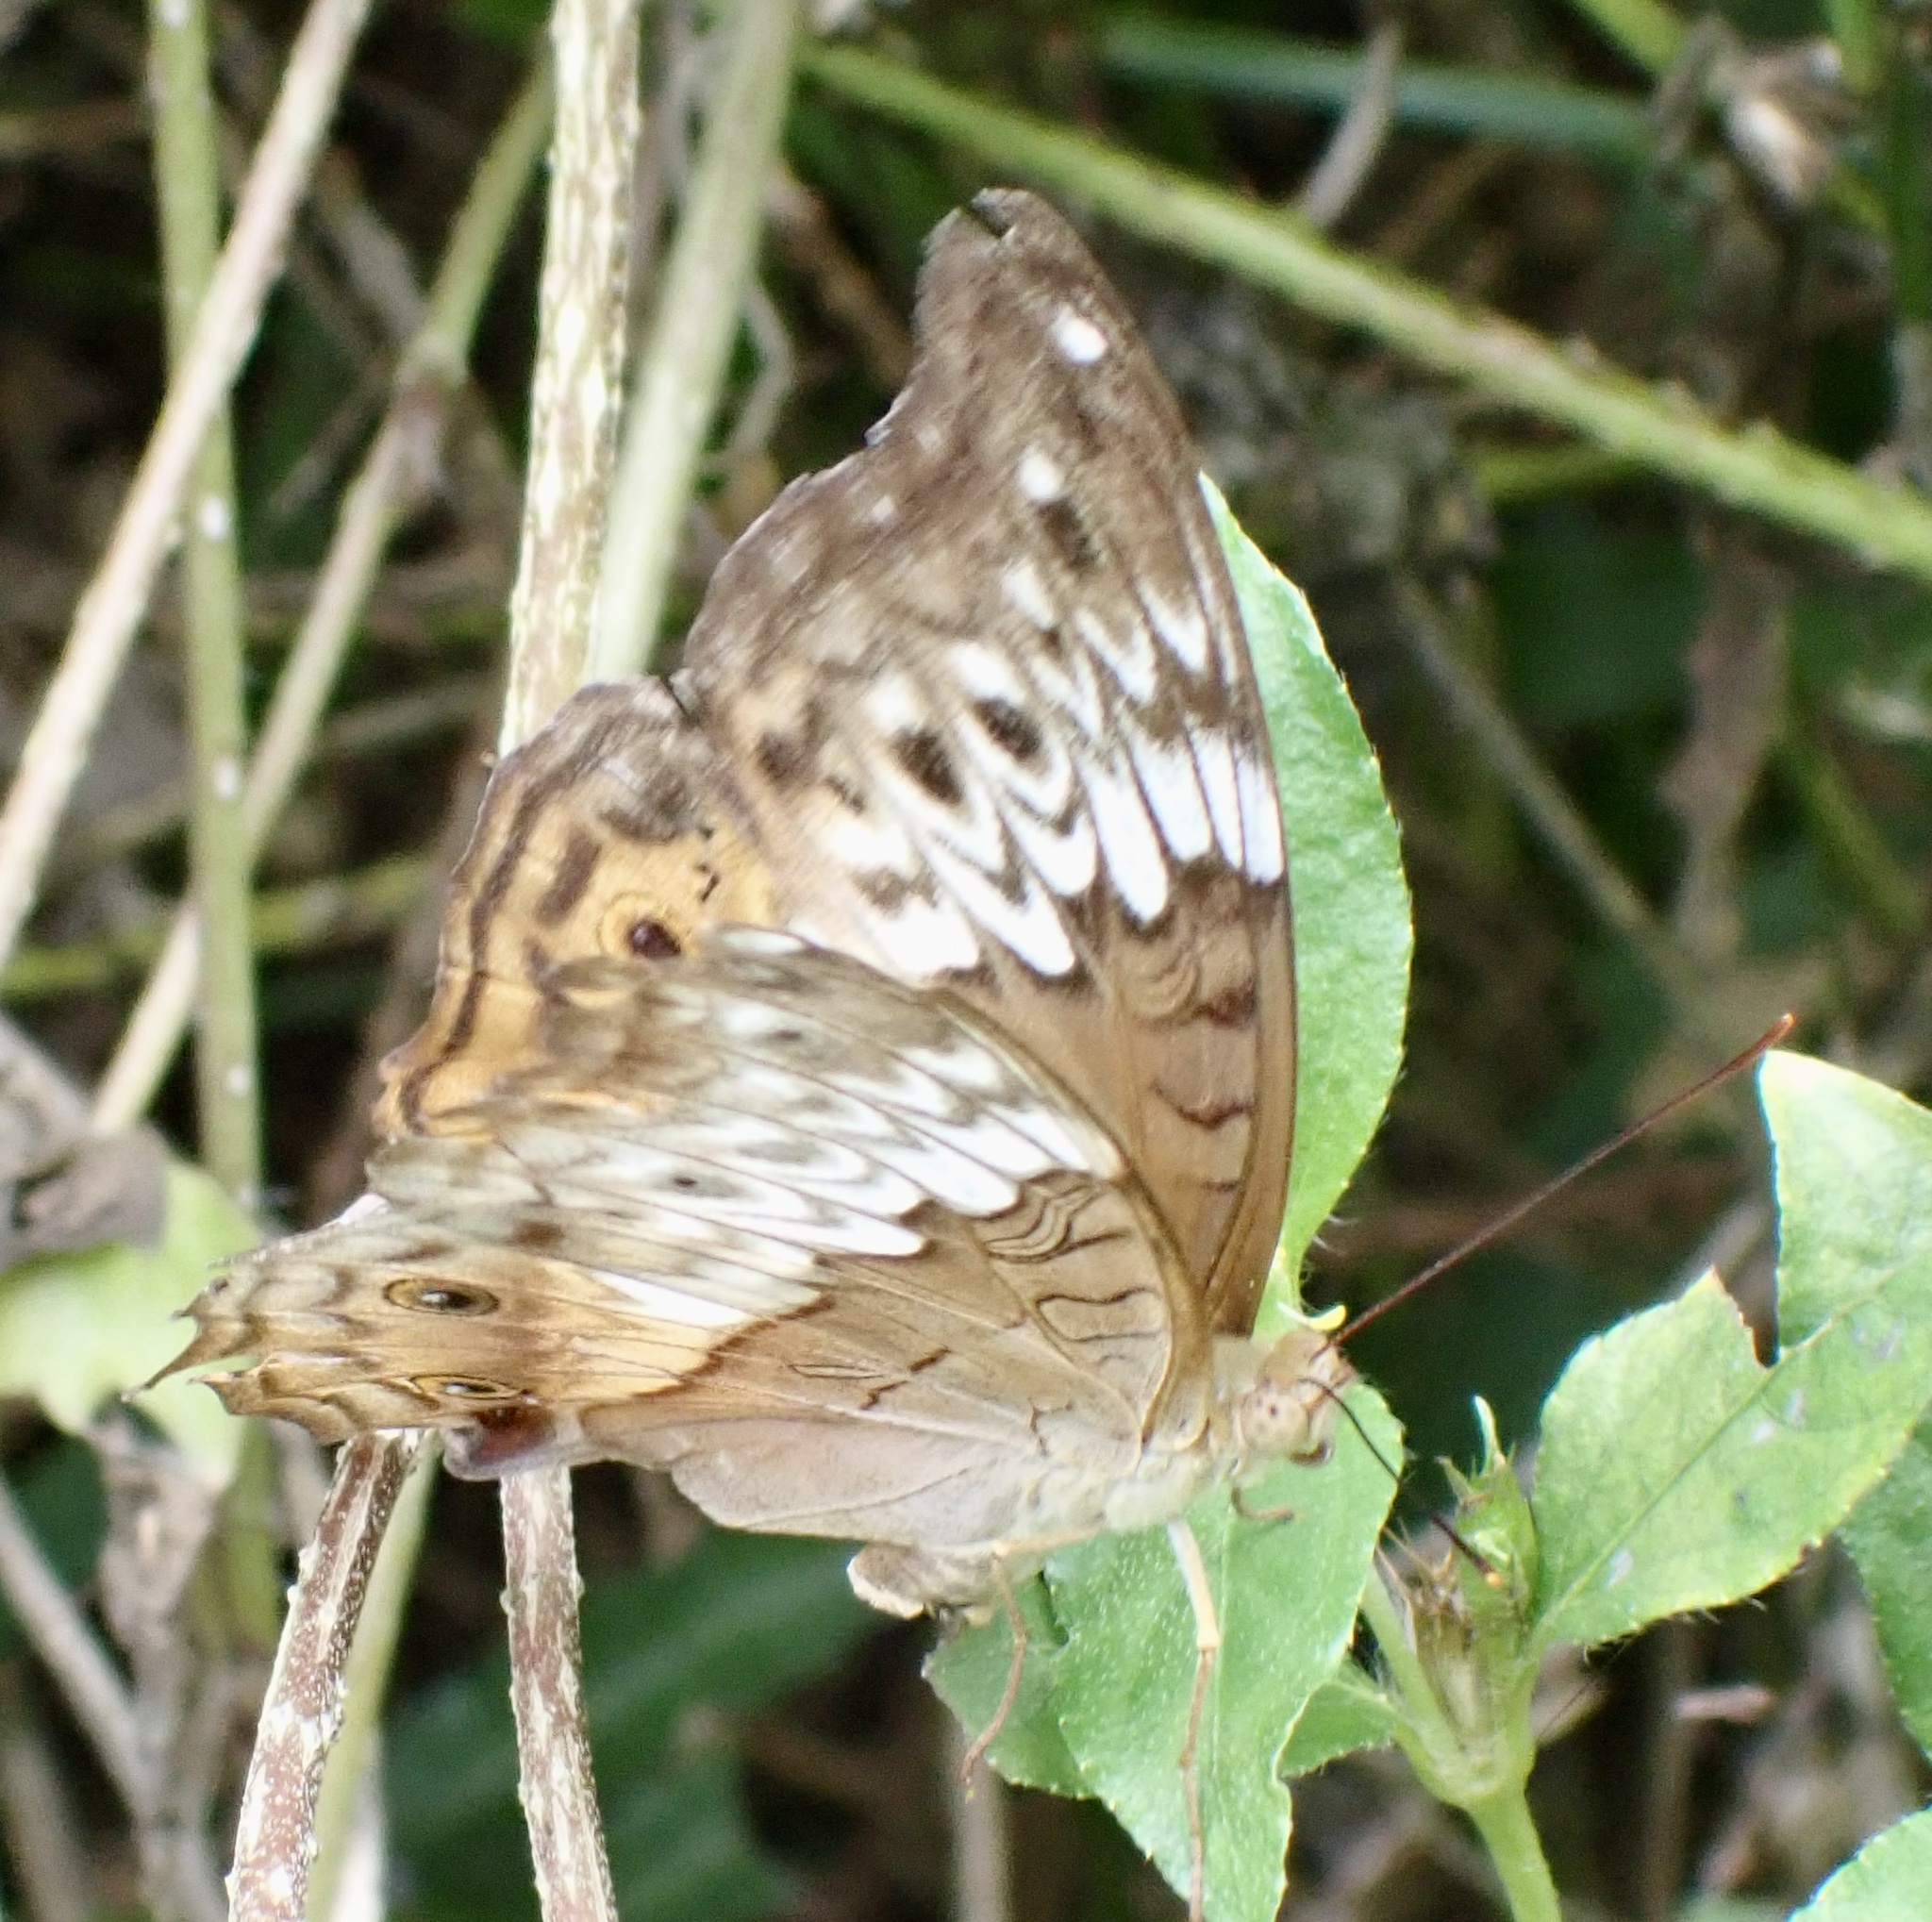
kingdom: Animalia
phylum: Arthropoda
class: Insecta
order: Lepidoptera
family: Nymphalidae
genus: Vindula
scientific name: Vindula arsinoe
